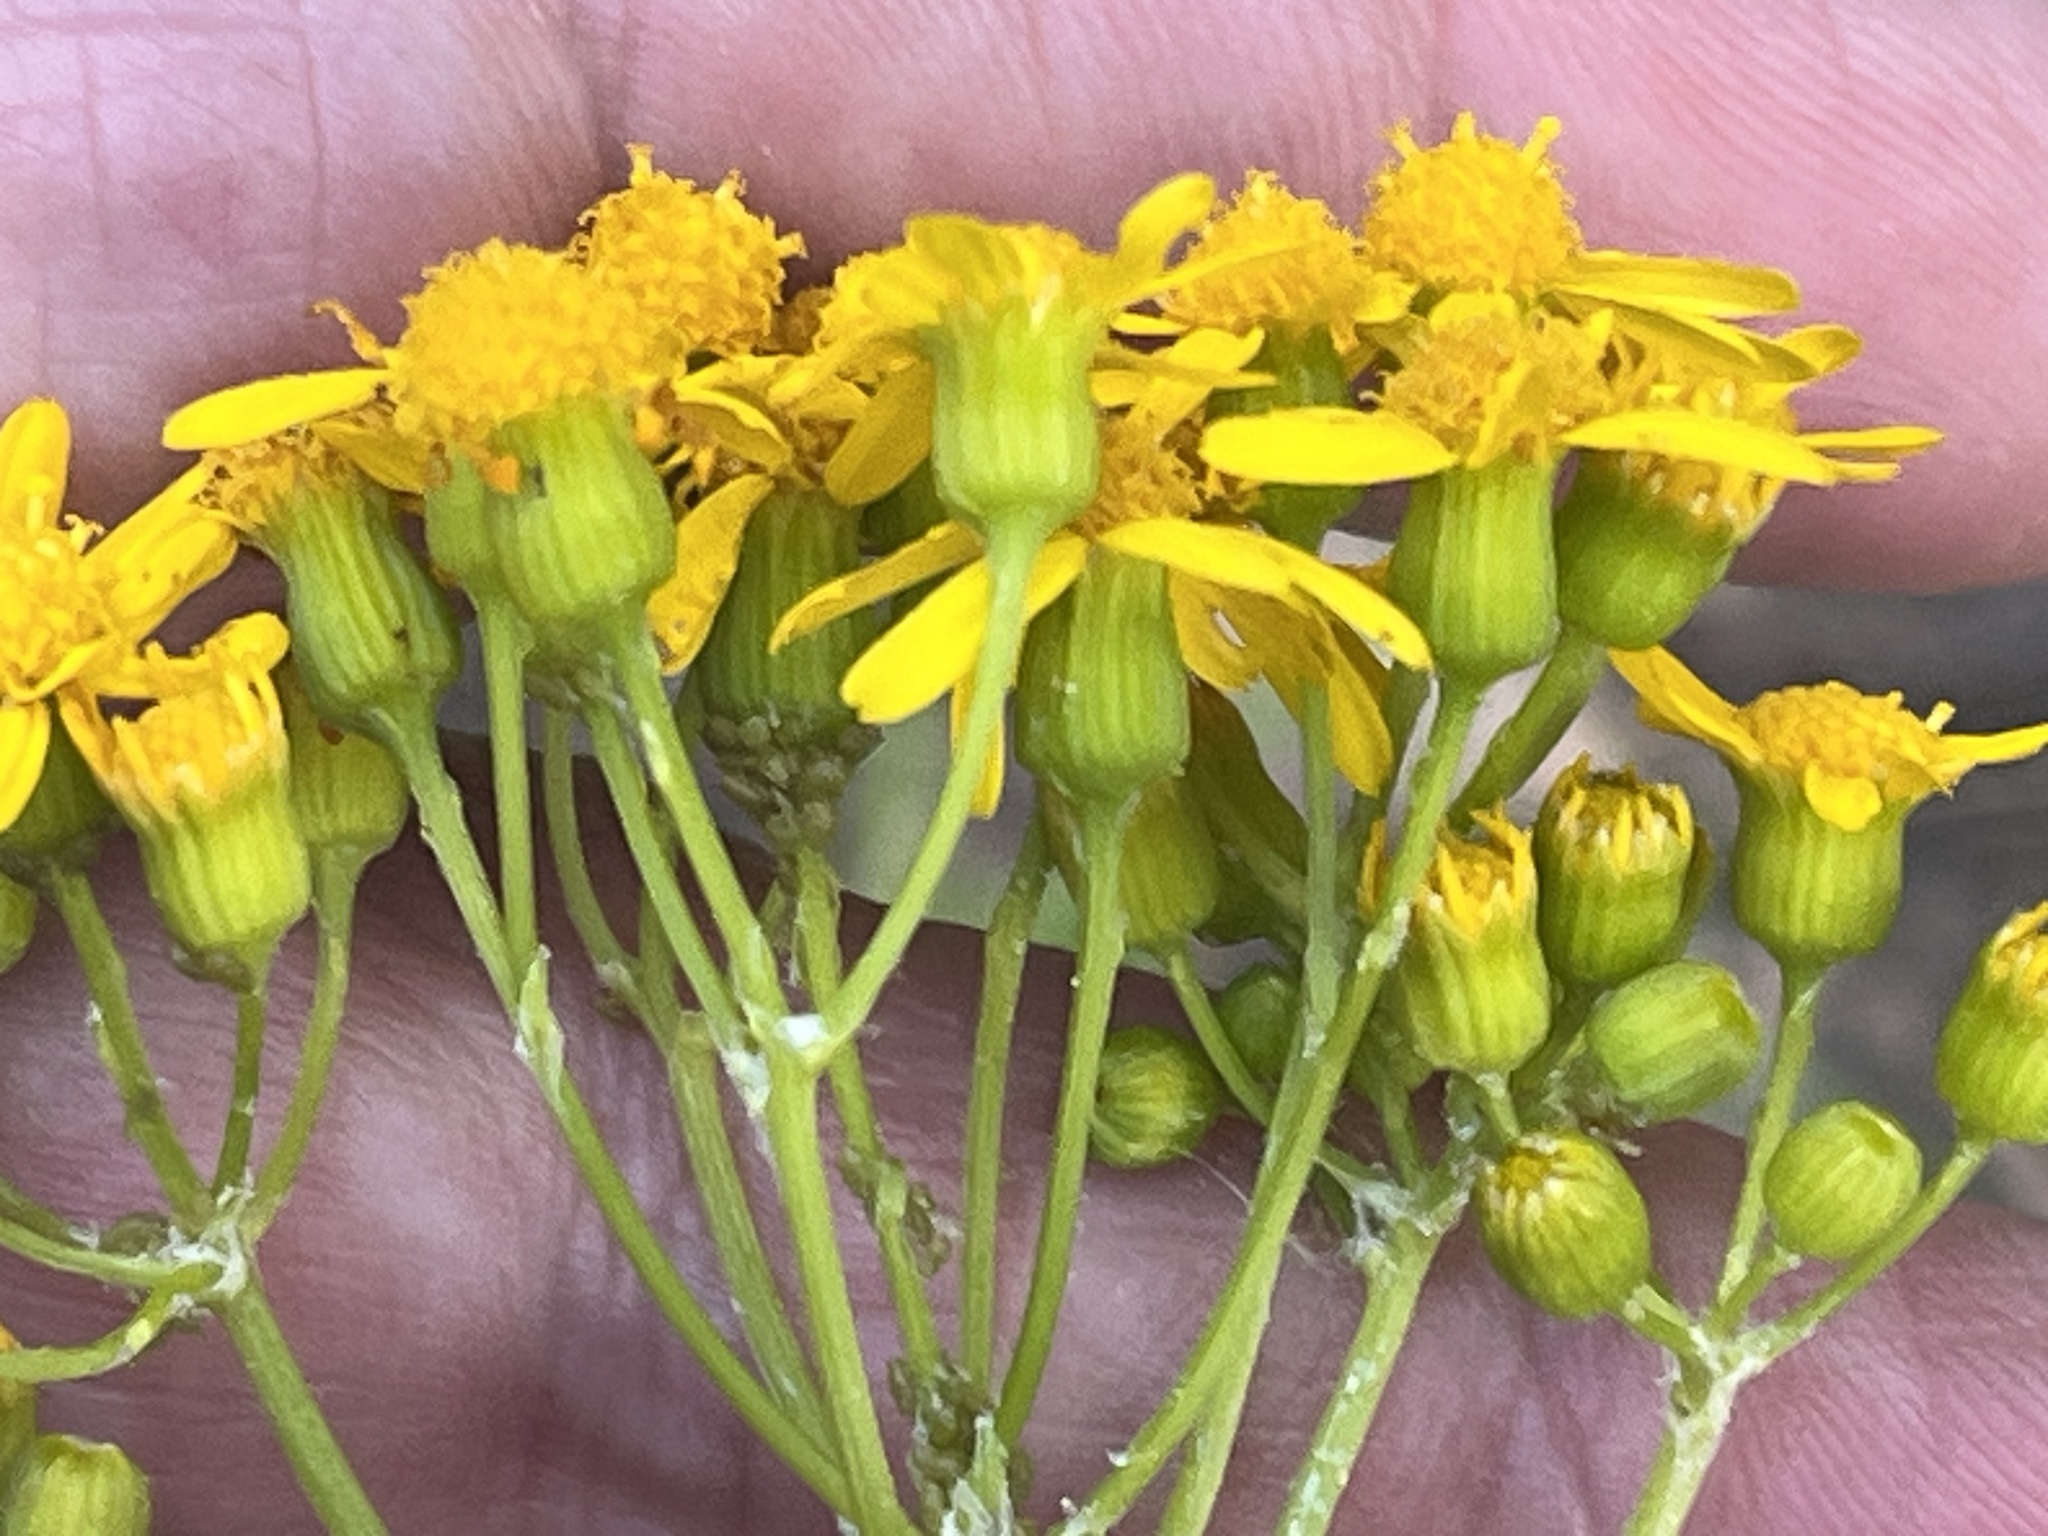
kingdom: Plantae
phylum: Tracheophyta
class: Magnoliopsida
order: Asterales
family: Asteraceae
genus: Packera
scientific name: Packera anonyma
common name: Small ragwort
